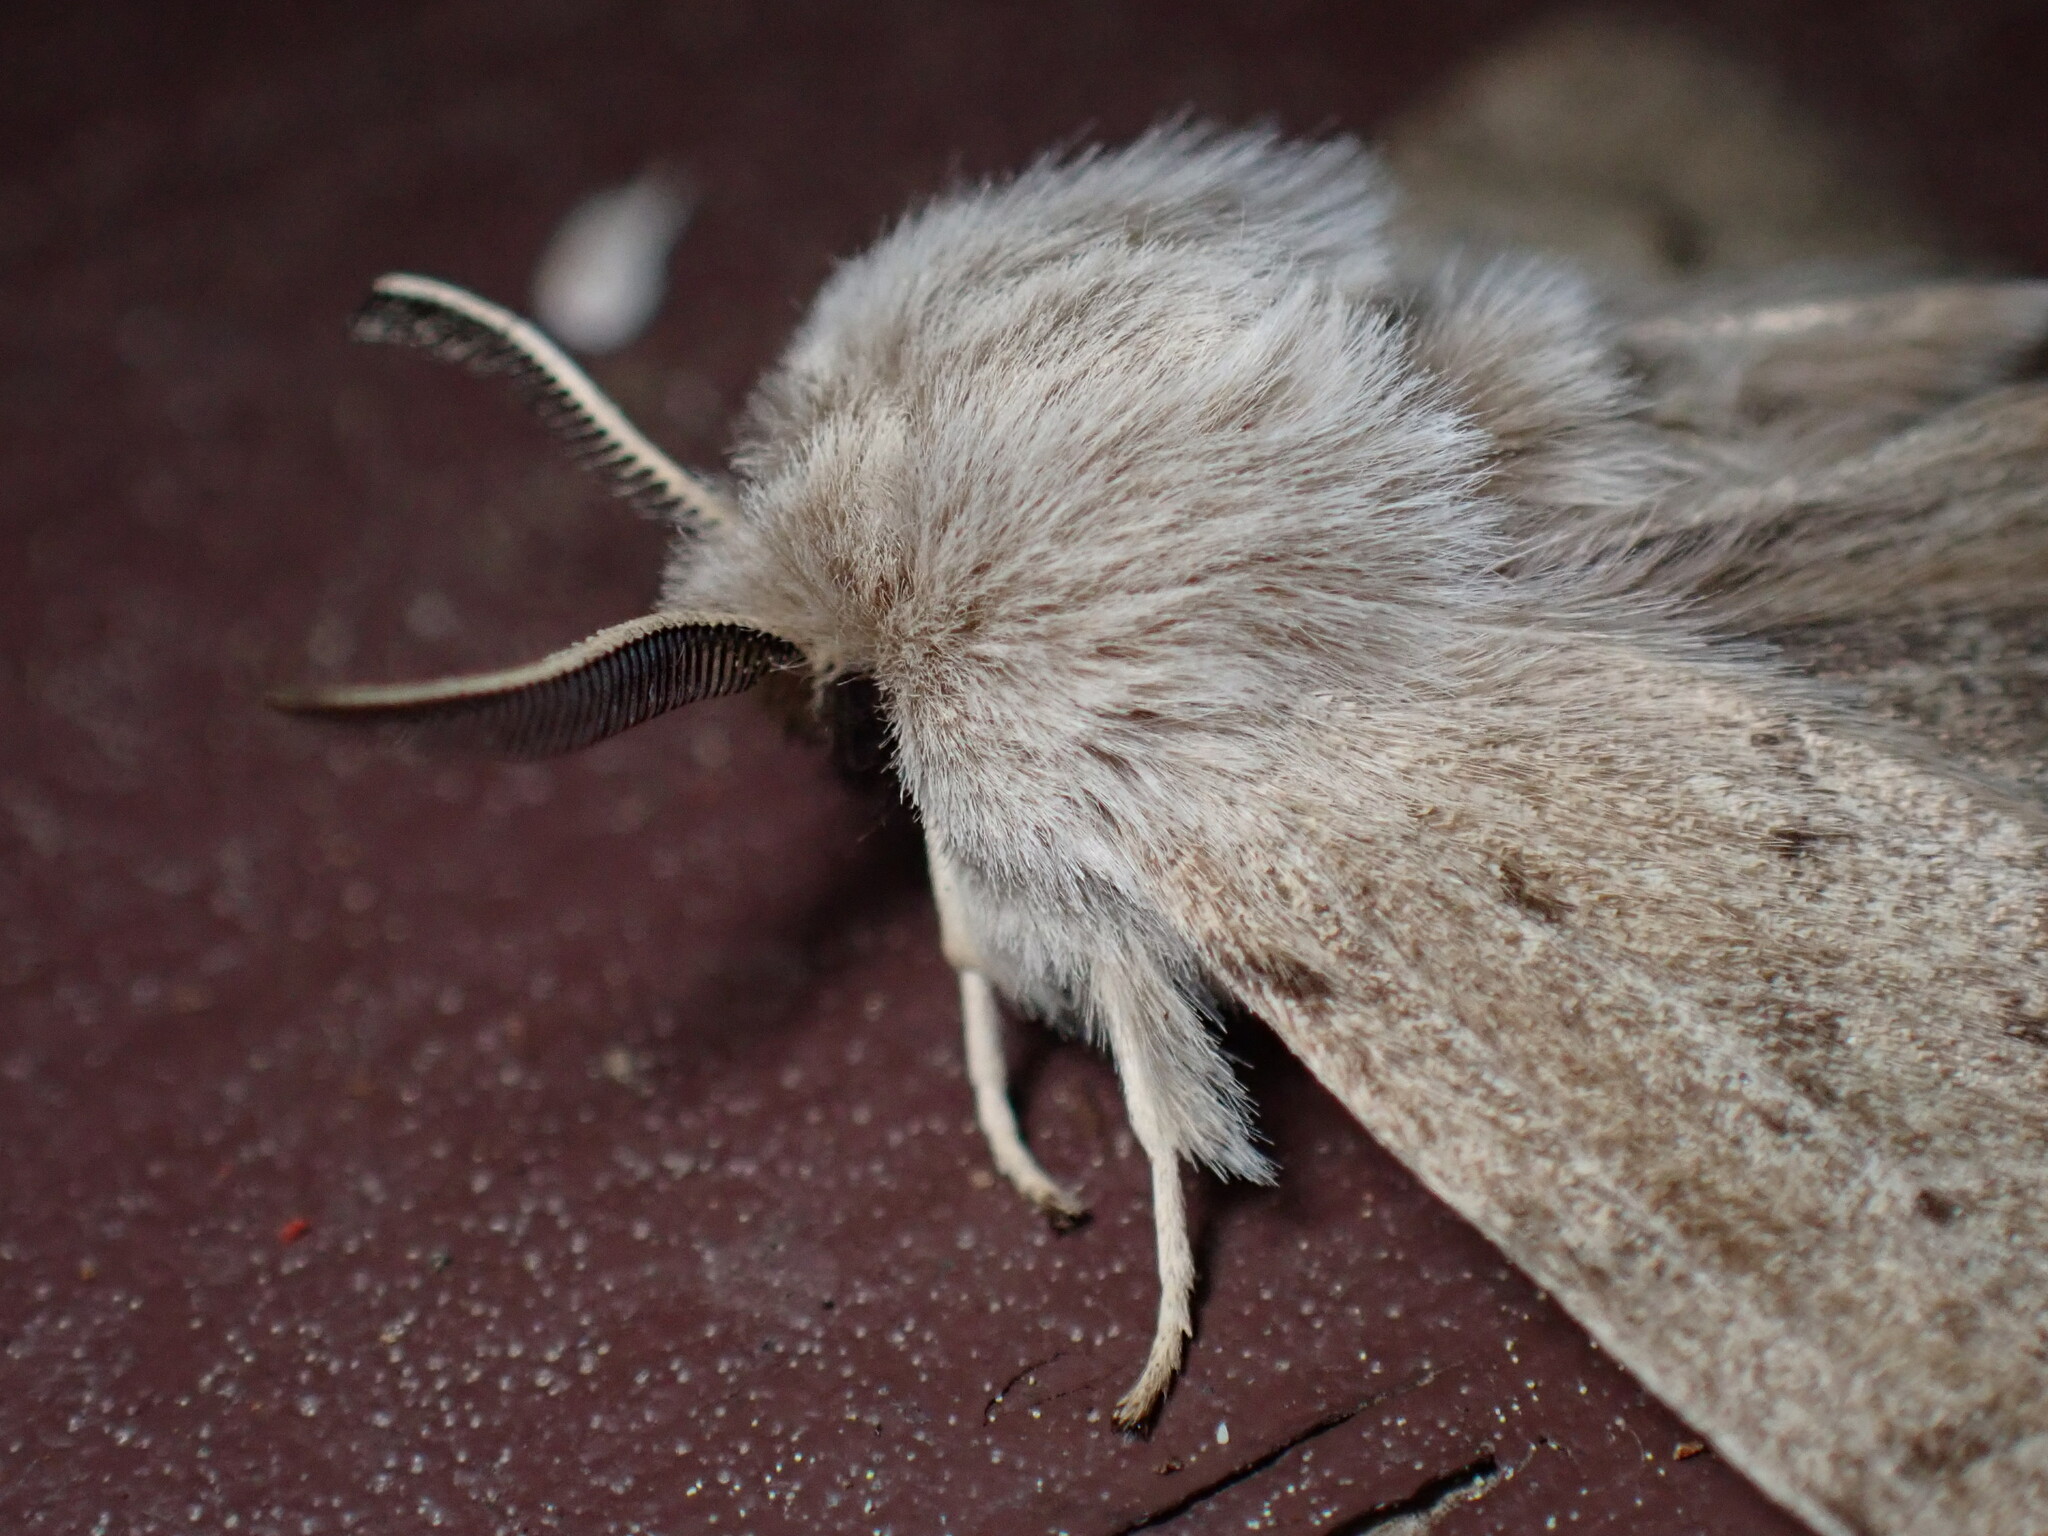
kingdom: Animalia
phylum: Arthropoda
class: Insecta
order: Lepidoptera
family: Erebidae
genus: Spilosoma
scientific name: Spilosoma vagans
